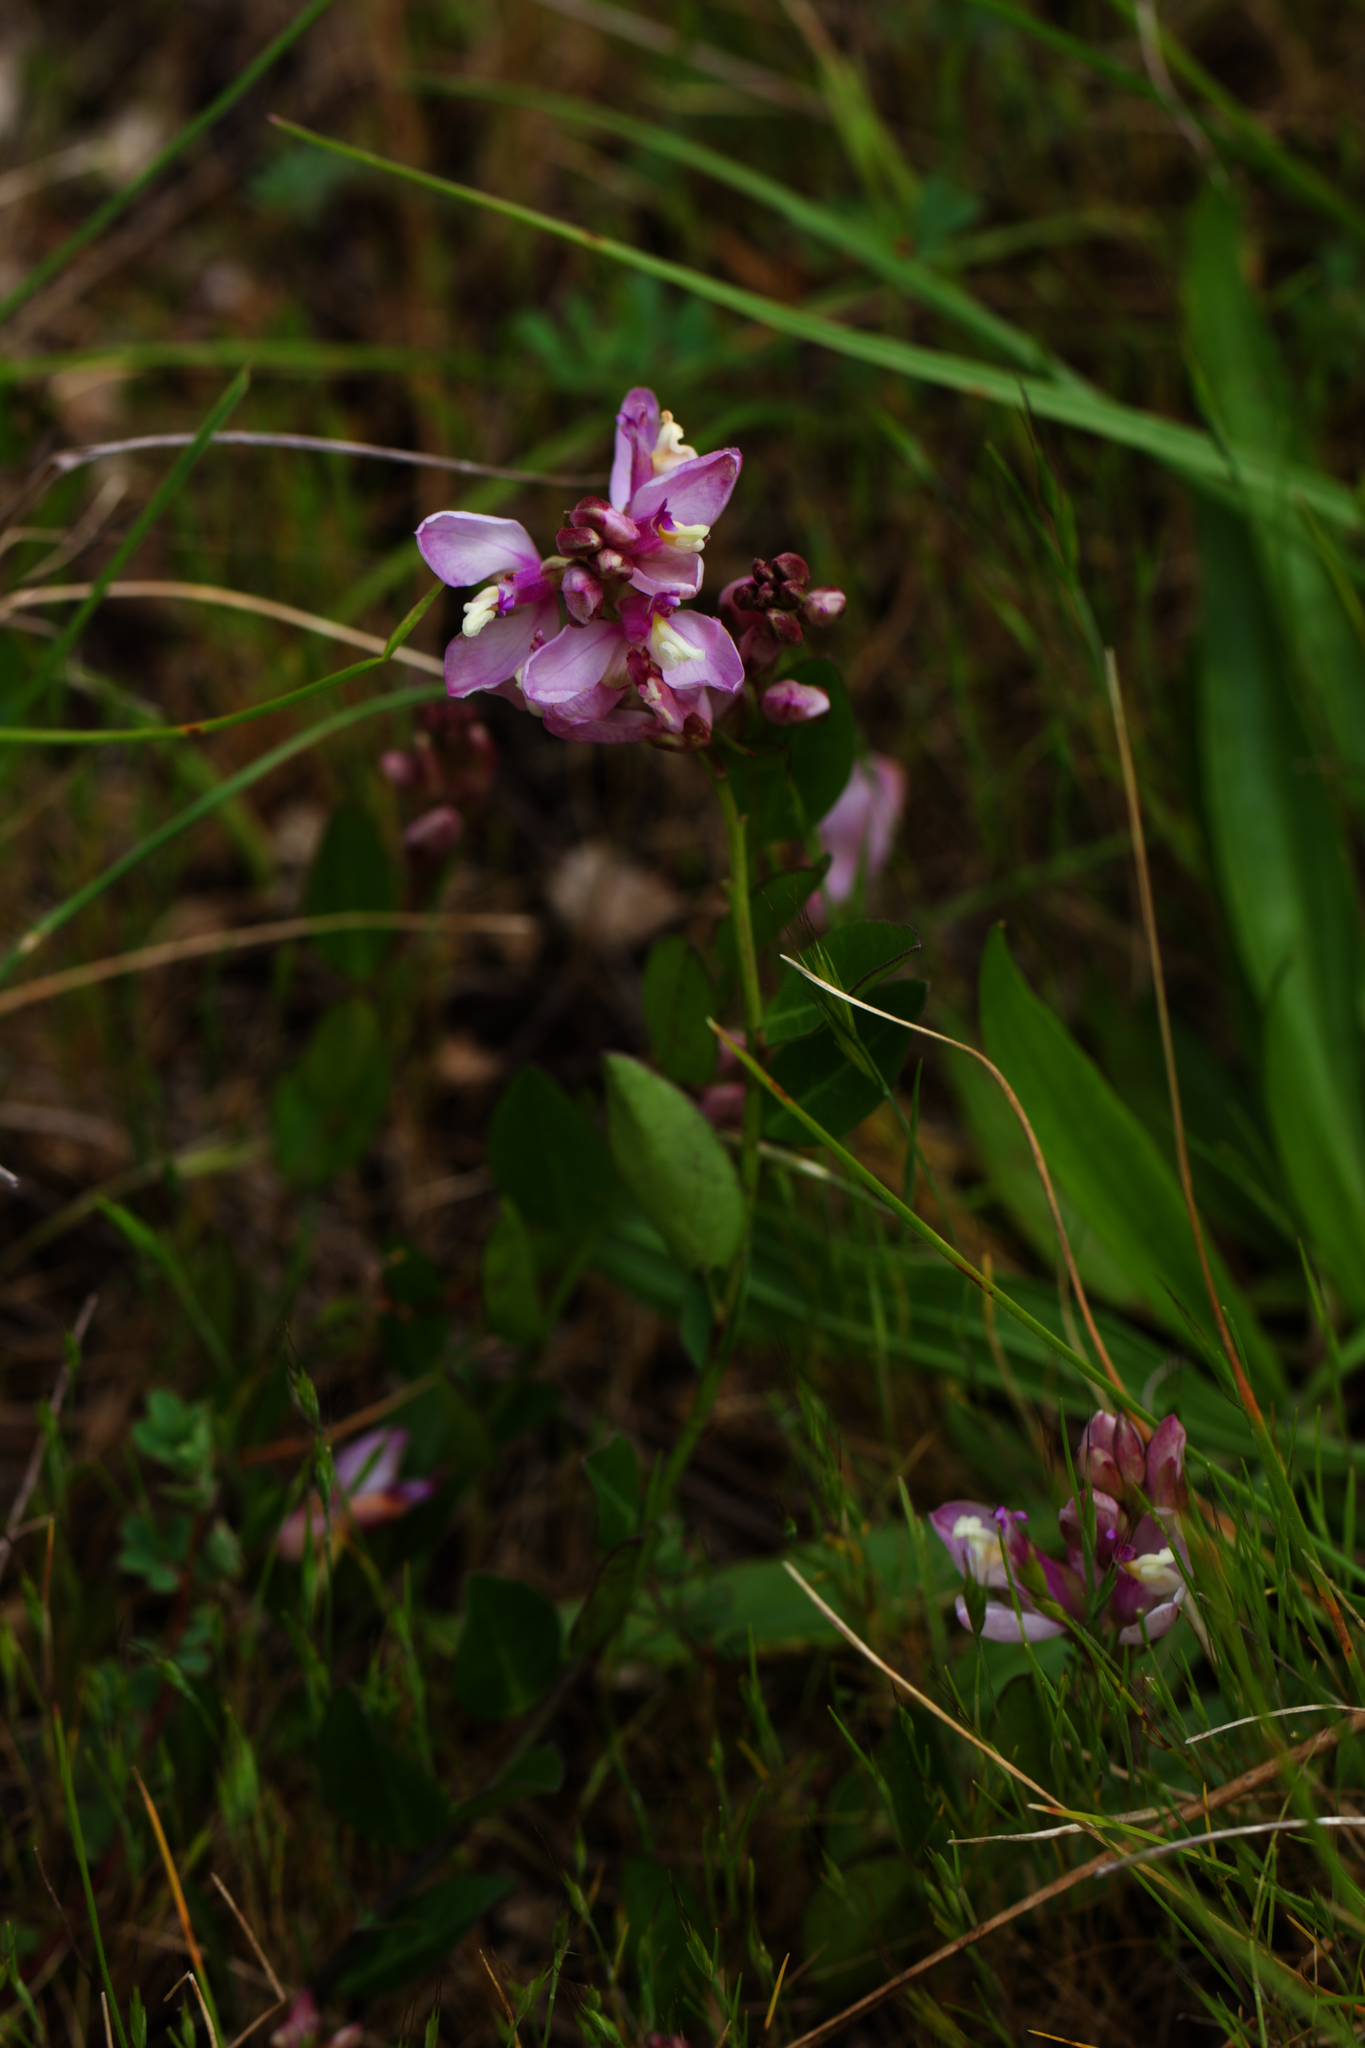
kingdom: Plantae
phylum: Tracheophyta
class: Magnoliopsida
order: Fabales
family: Polygalaceae
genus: Rhinotropis
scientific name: Rhinotropis californica
